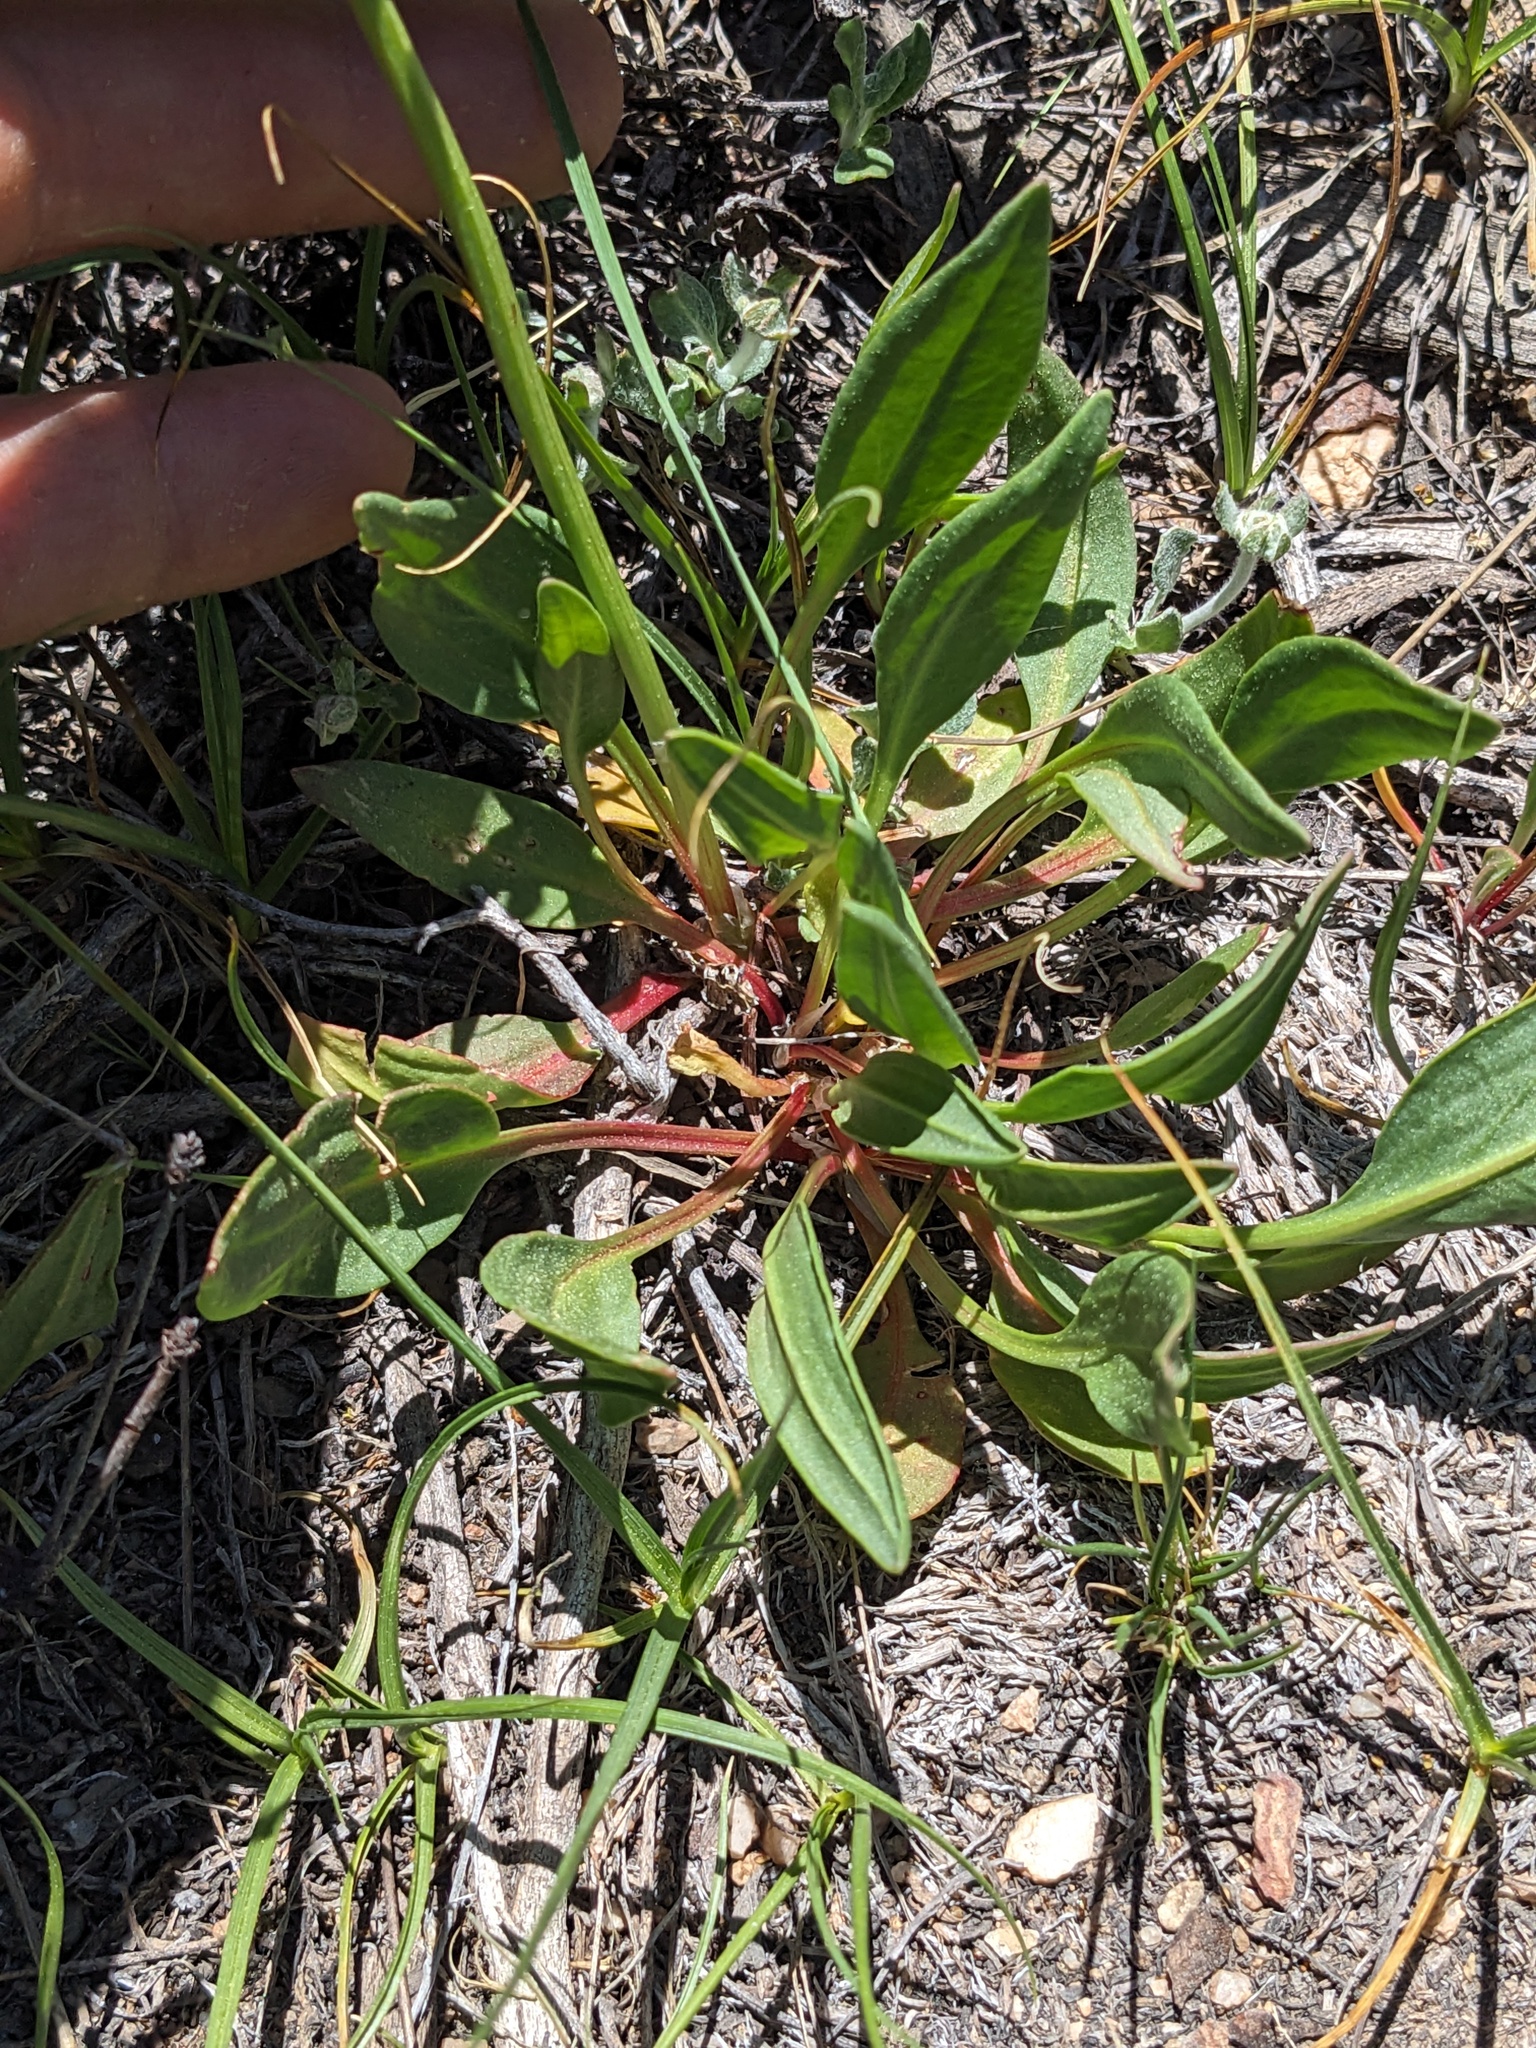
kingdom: Plantae
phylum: Tracheophyta
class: Magnoliopsida
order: Caryophyllales
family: Polygonaceae
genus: Rumex
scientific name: Rumex paucifolius
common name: Alpine sheep sorrel
